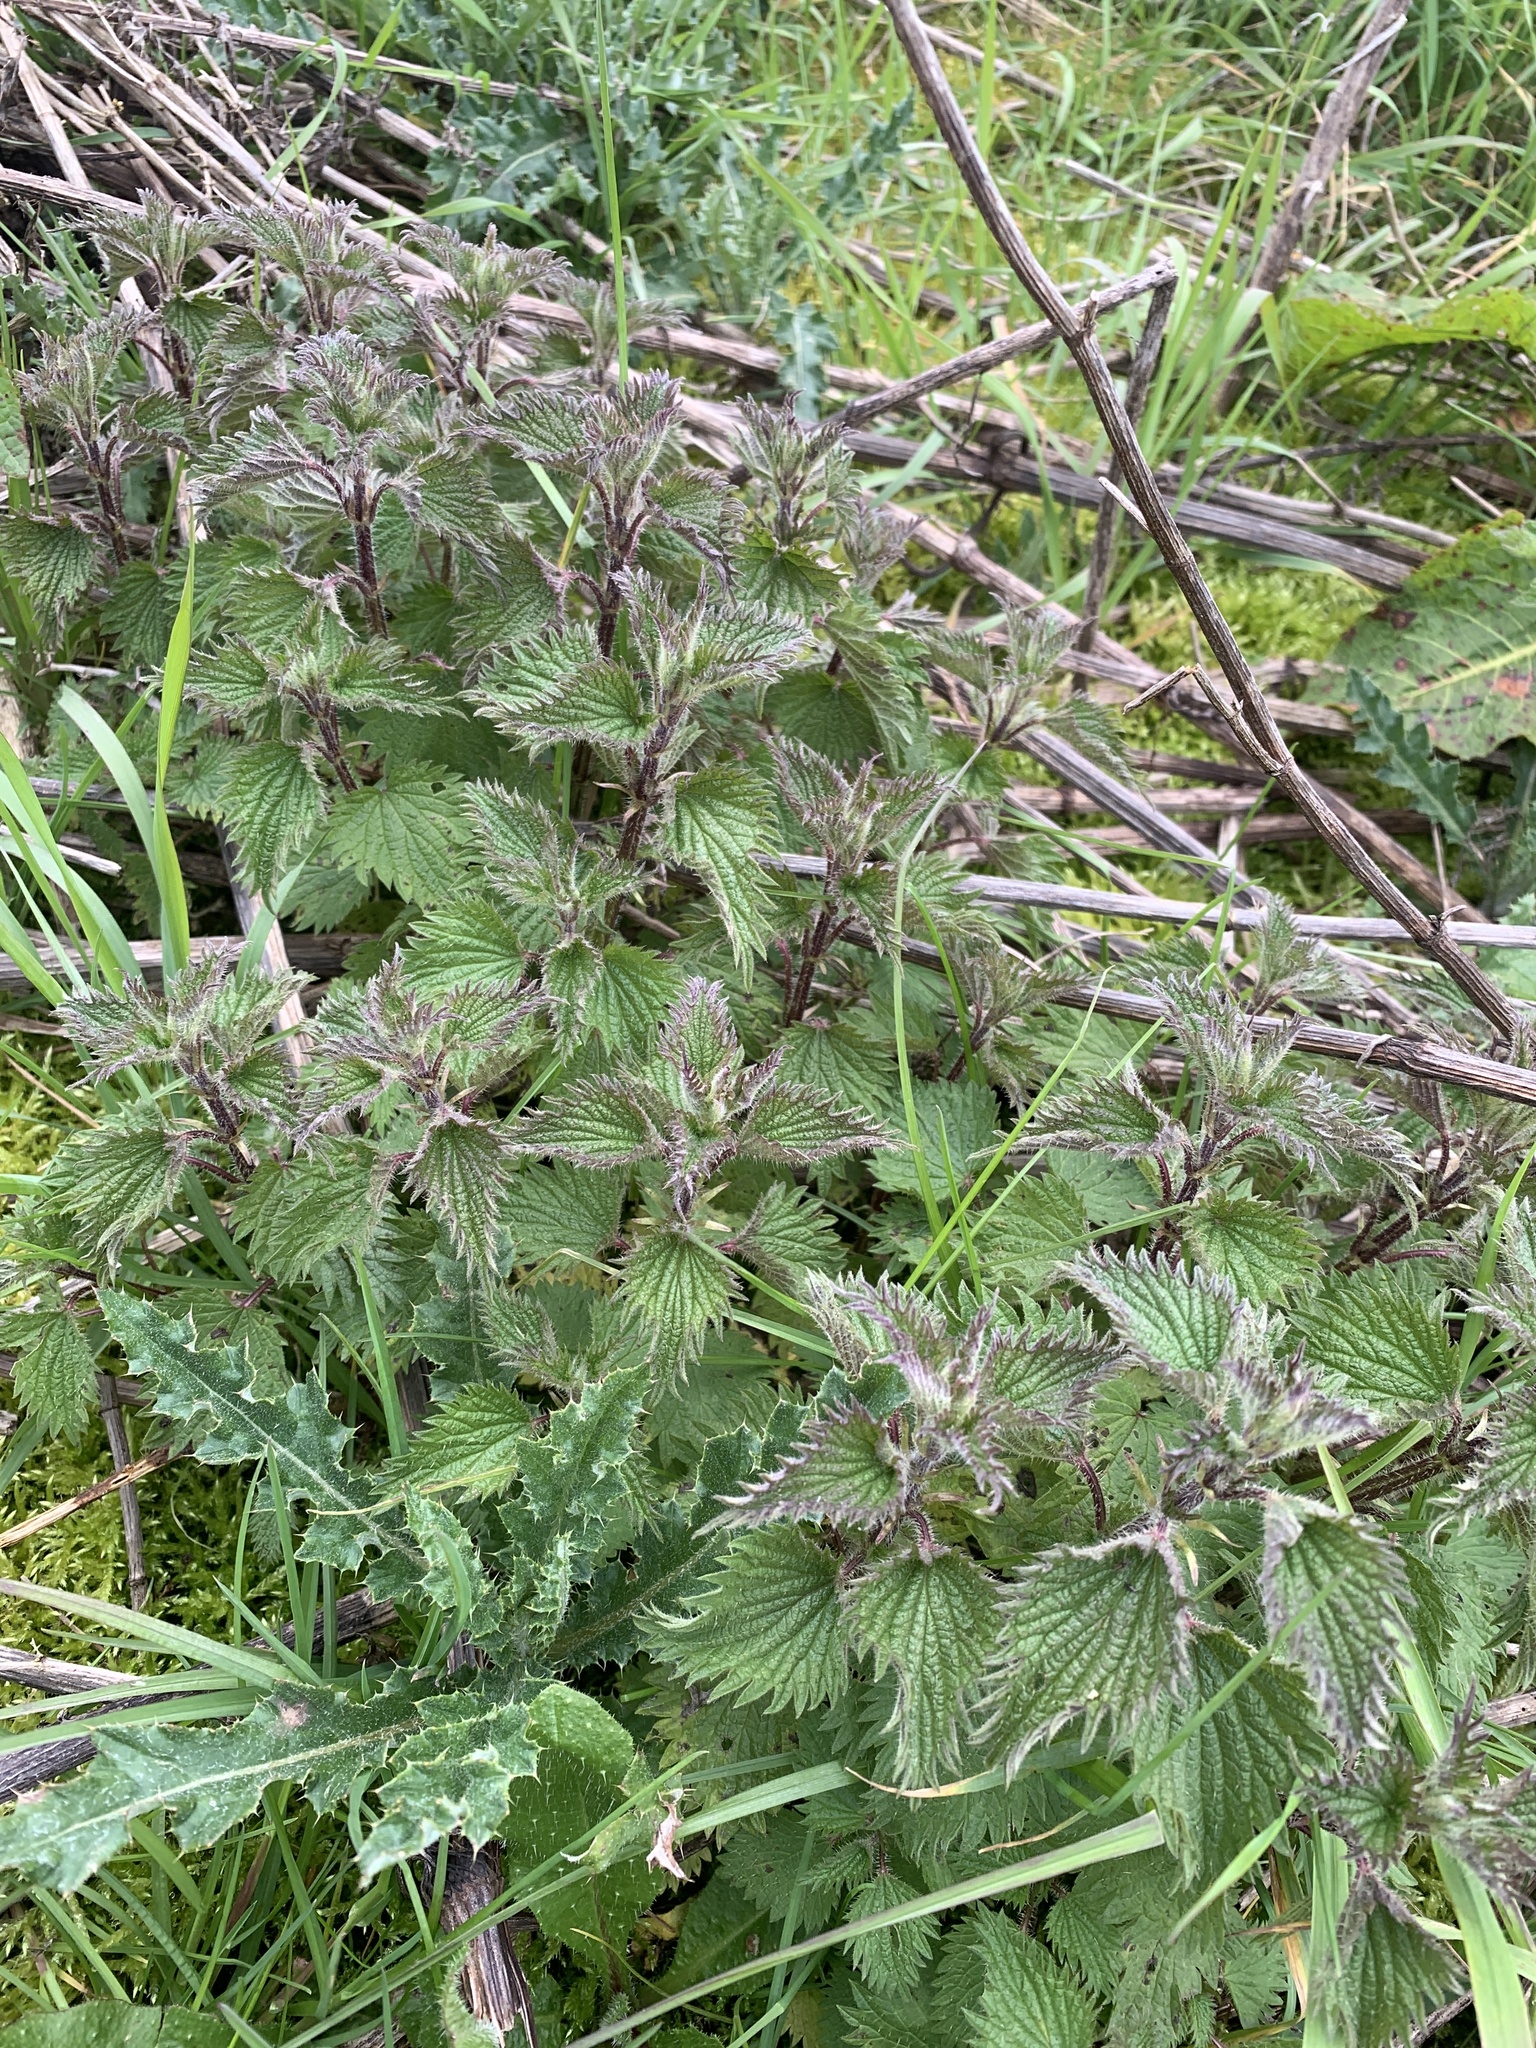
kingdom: Plantae
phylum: Tracheophyta
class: Magnoliopsida
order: Rosales
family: Urticaceae
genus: Urtica
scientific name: Urtica dioica
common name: Common nettle
